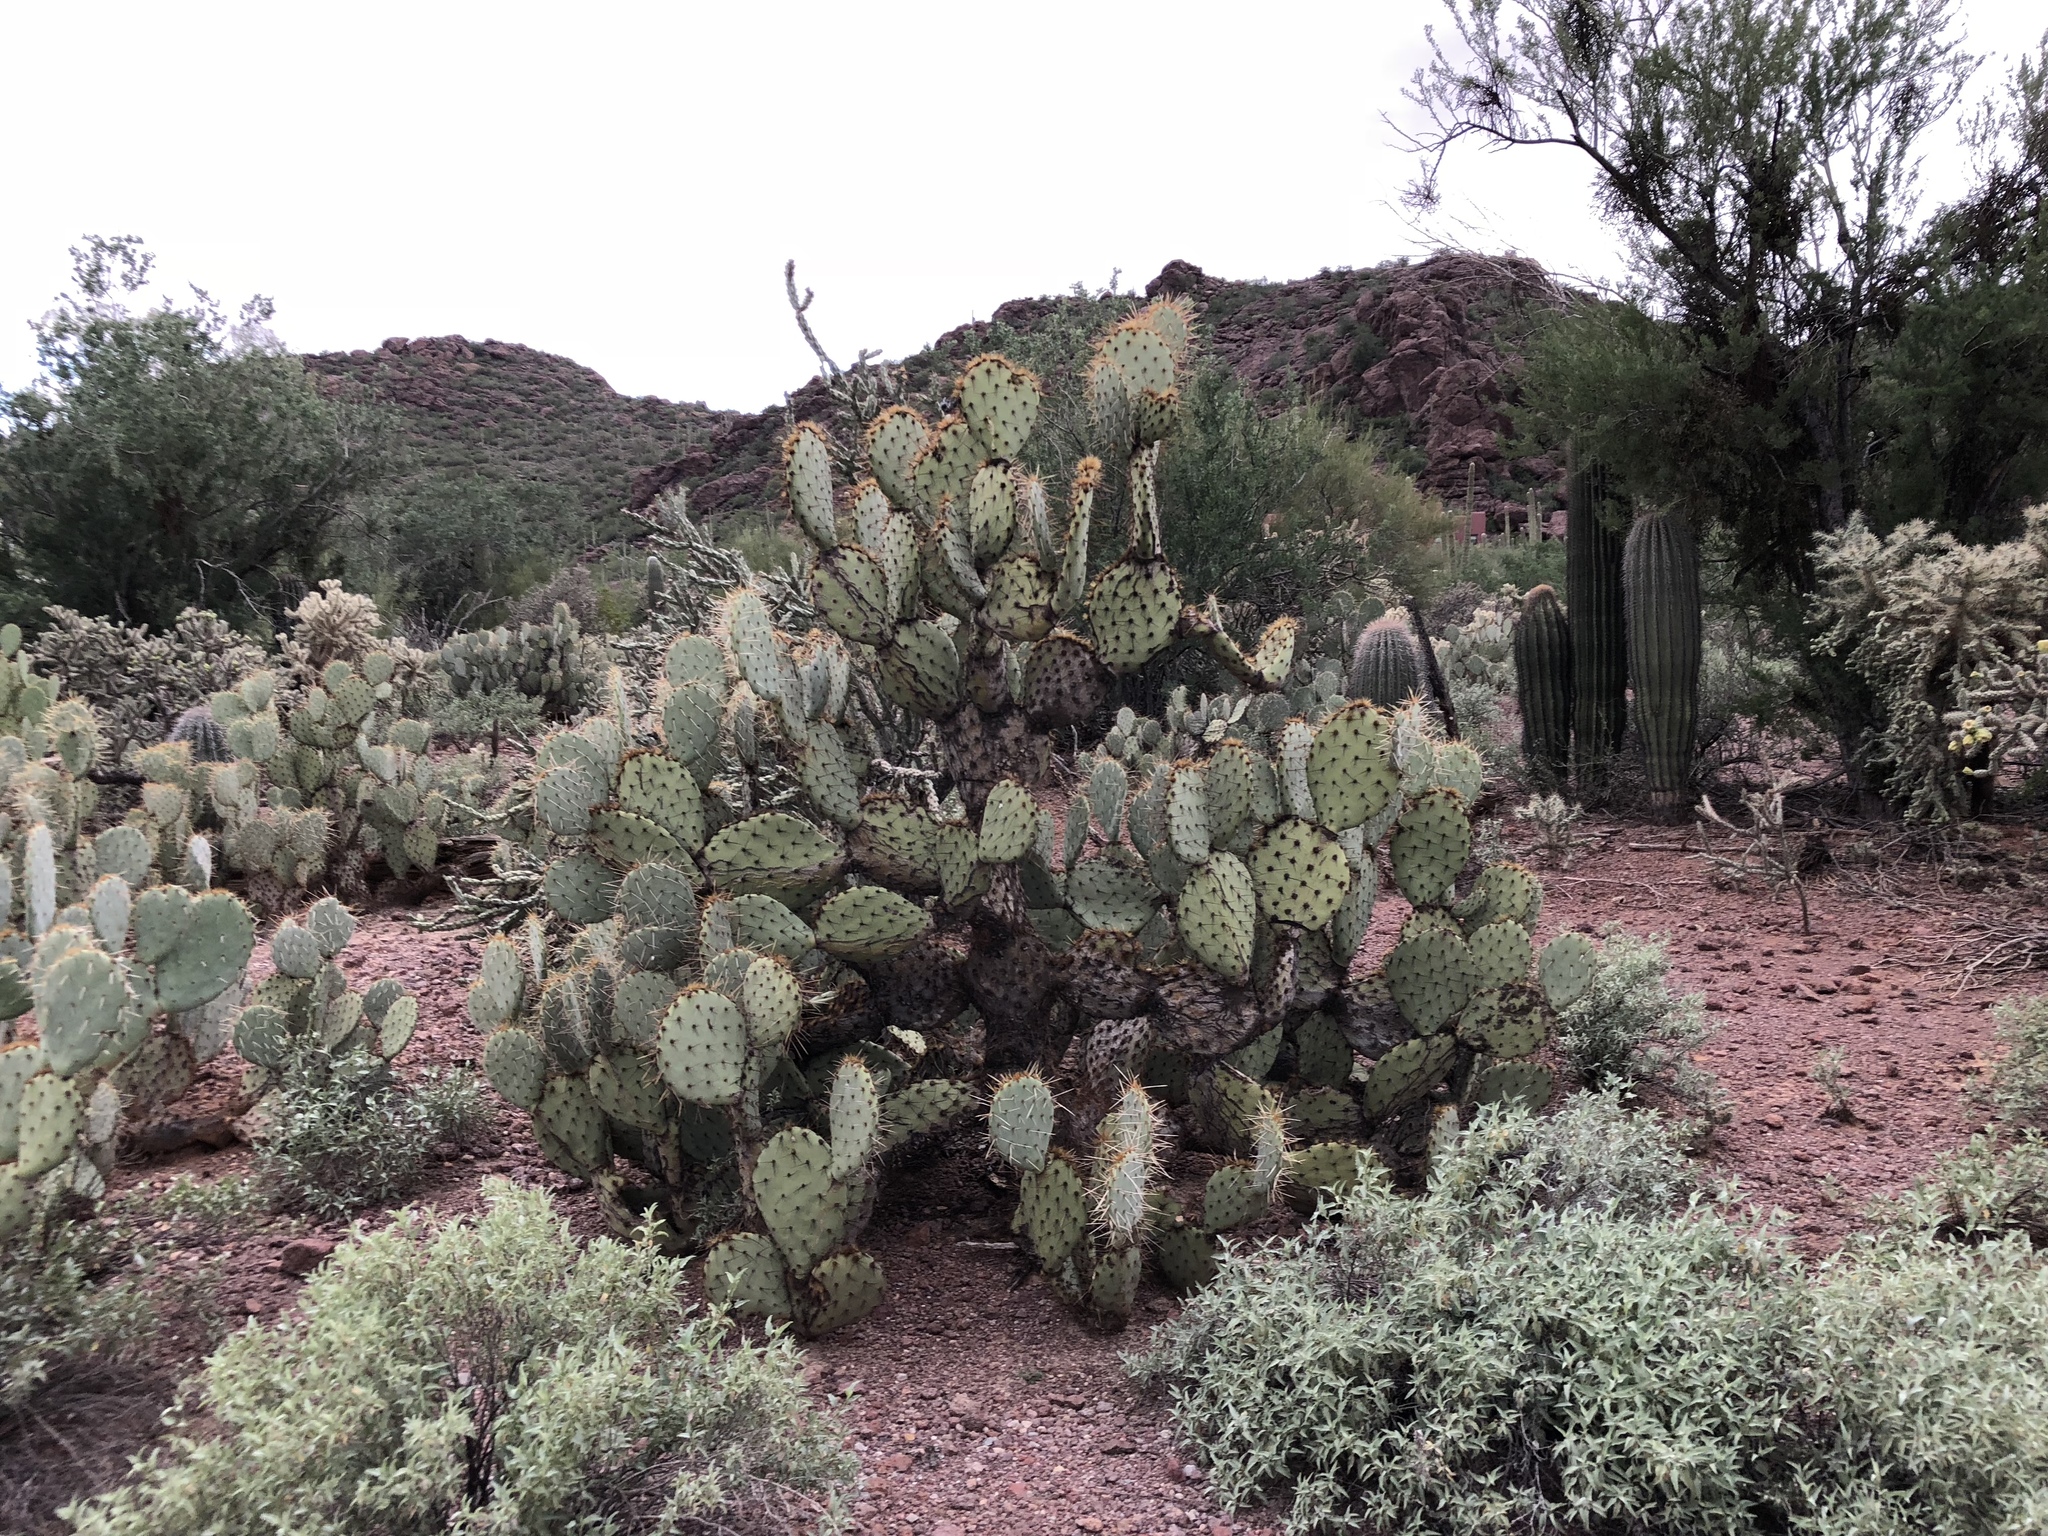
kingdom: Plantae
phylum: Tracheophyta
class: Magnoliopsida
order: Caryophyllales
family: Cactaceae
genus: Opuntia
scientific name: Opuntia engelmannii
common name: Cactus-apple
